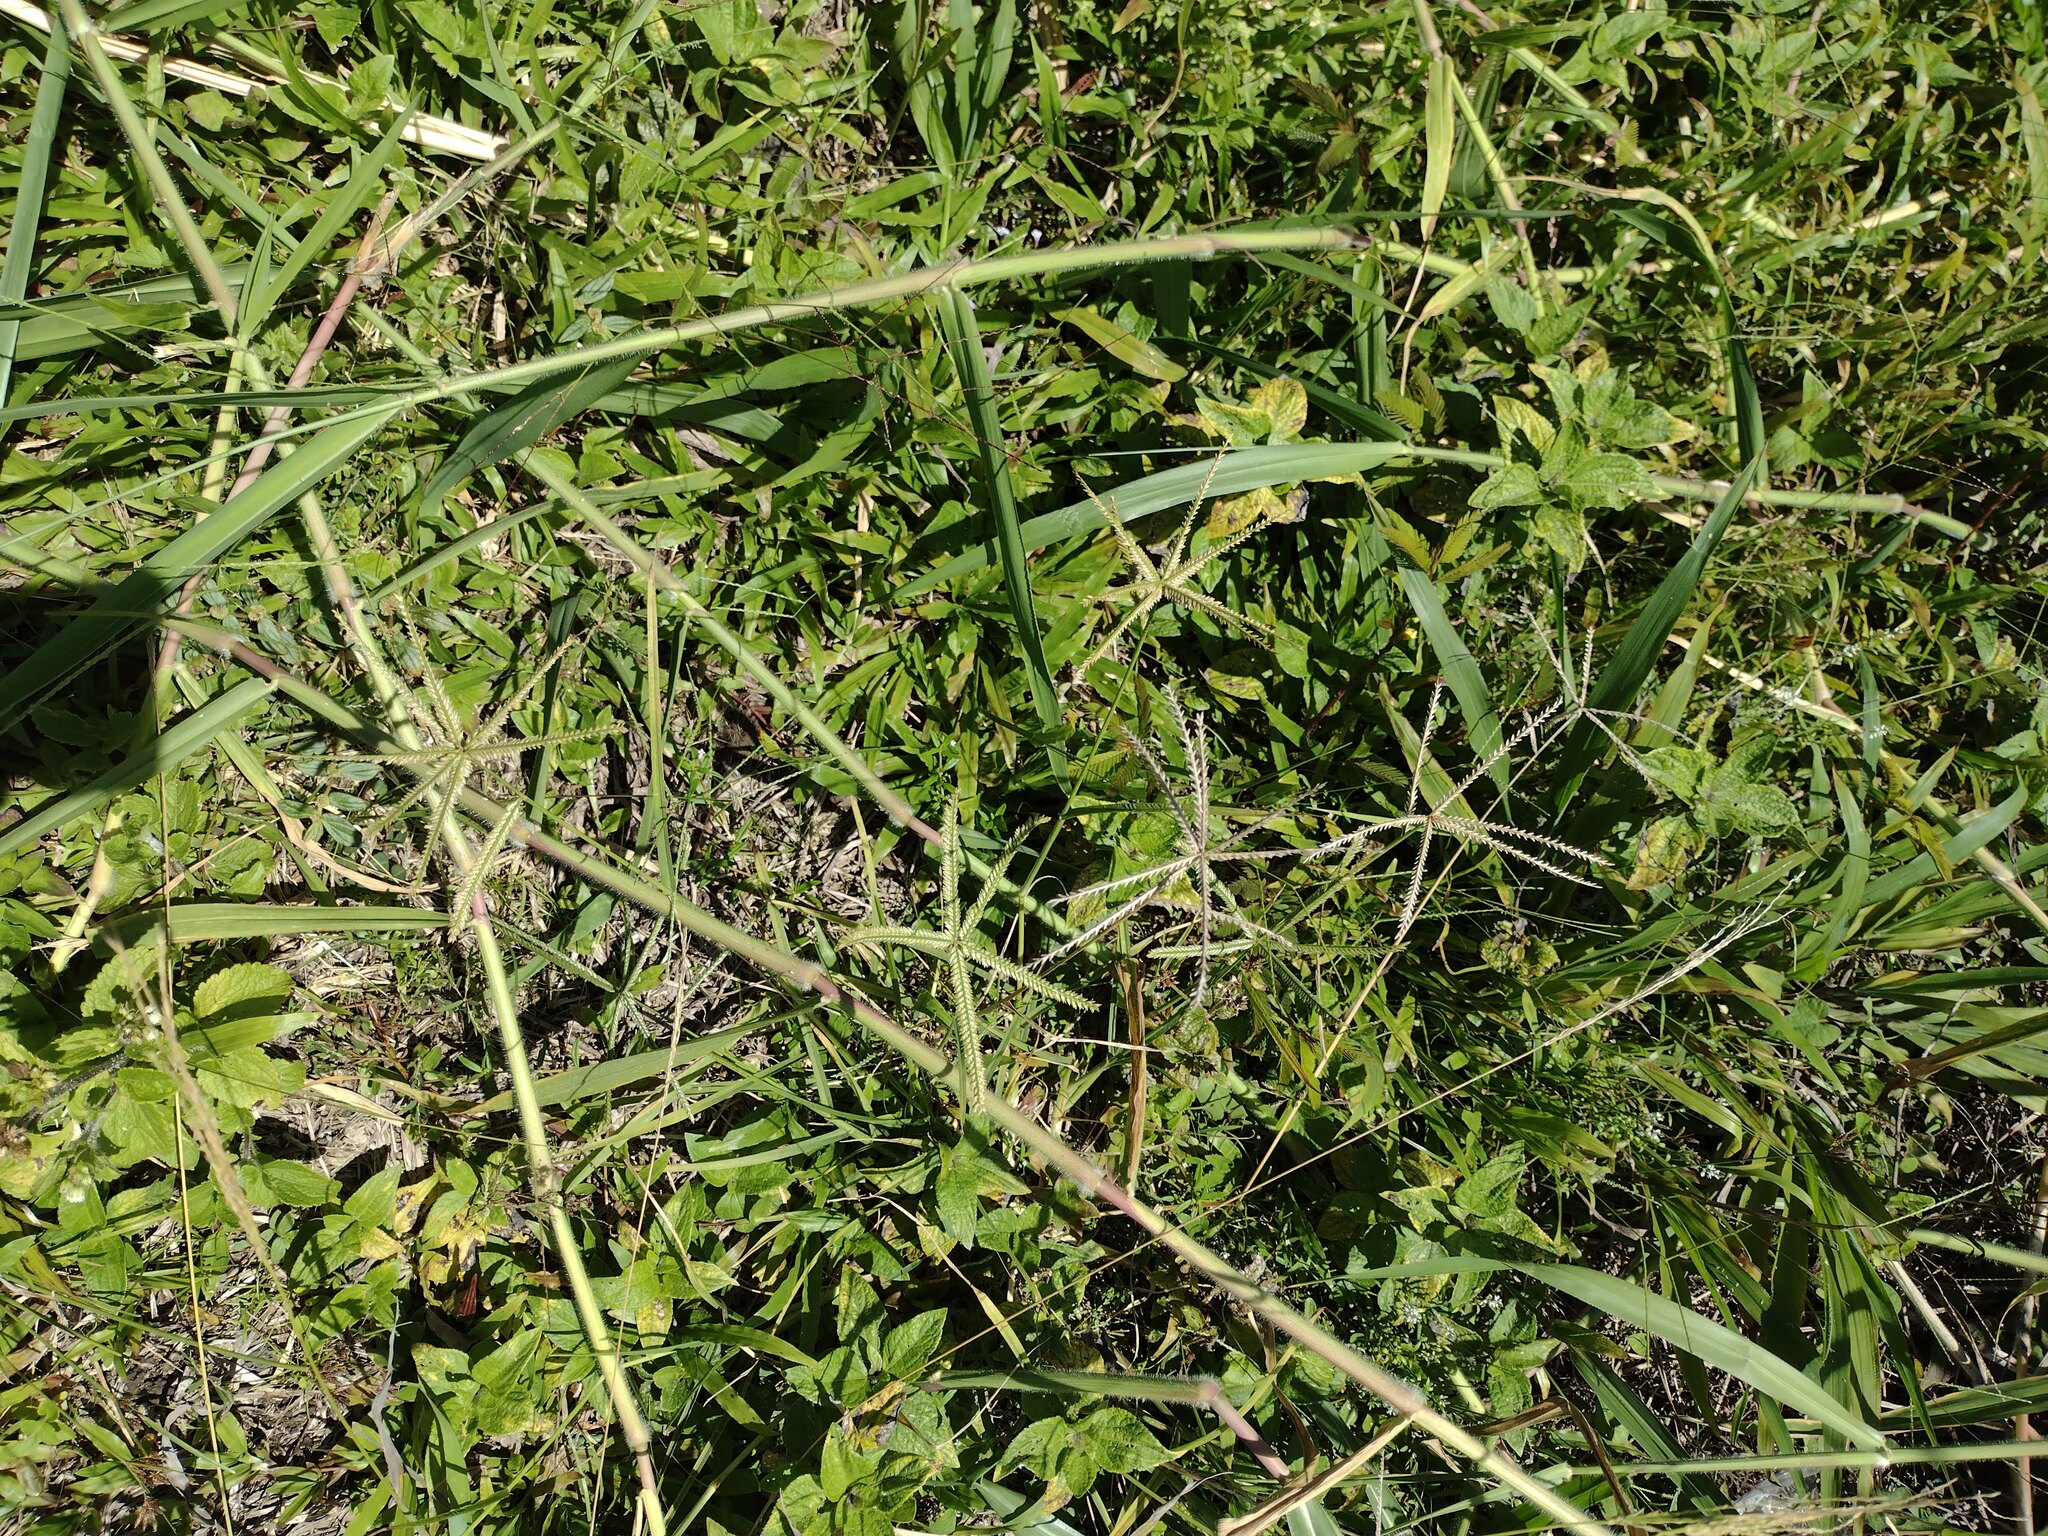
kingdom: Plantae
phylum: Tracheophyta
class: Liliopsida
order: Poales
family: Poaceae
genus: Urochloa
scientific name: Urochloa mutica
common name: Para grass
